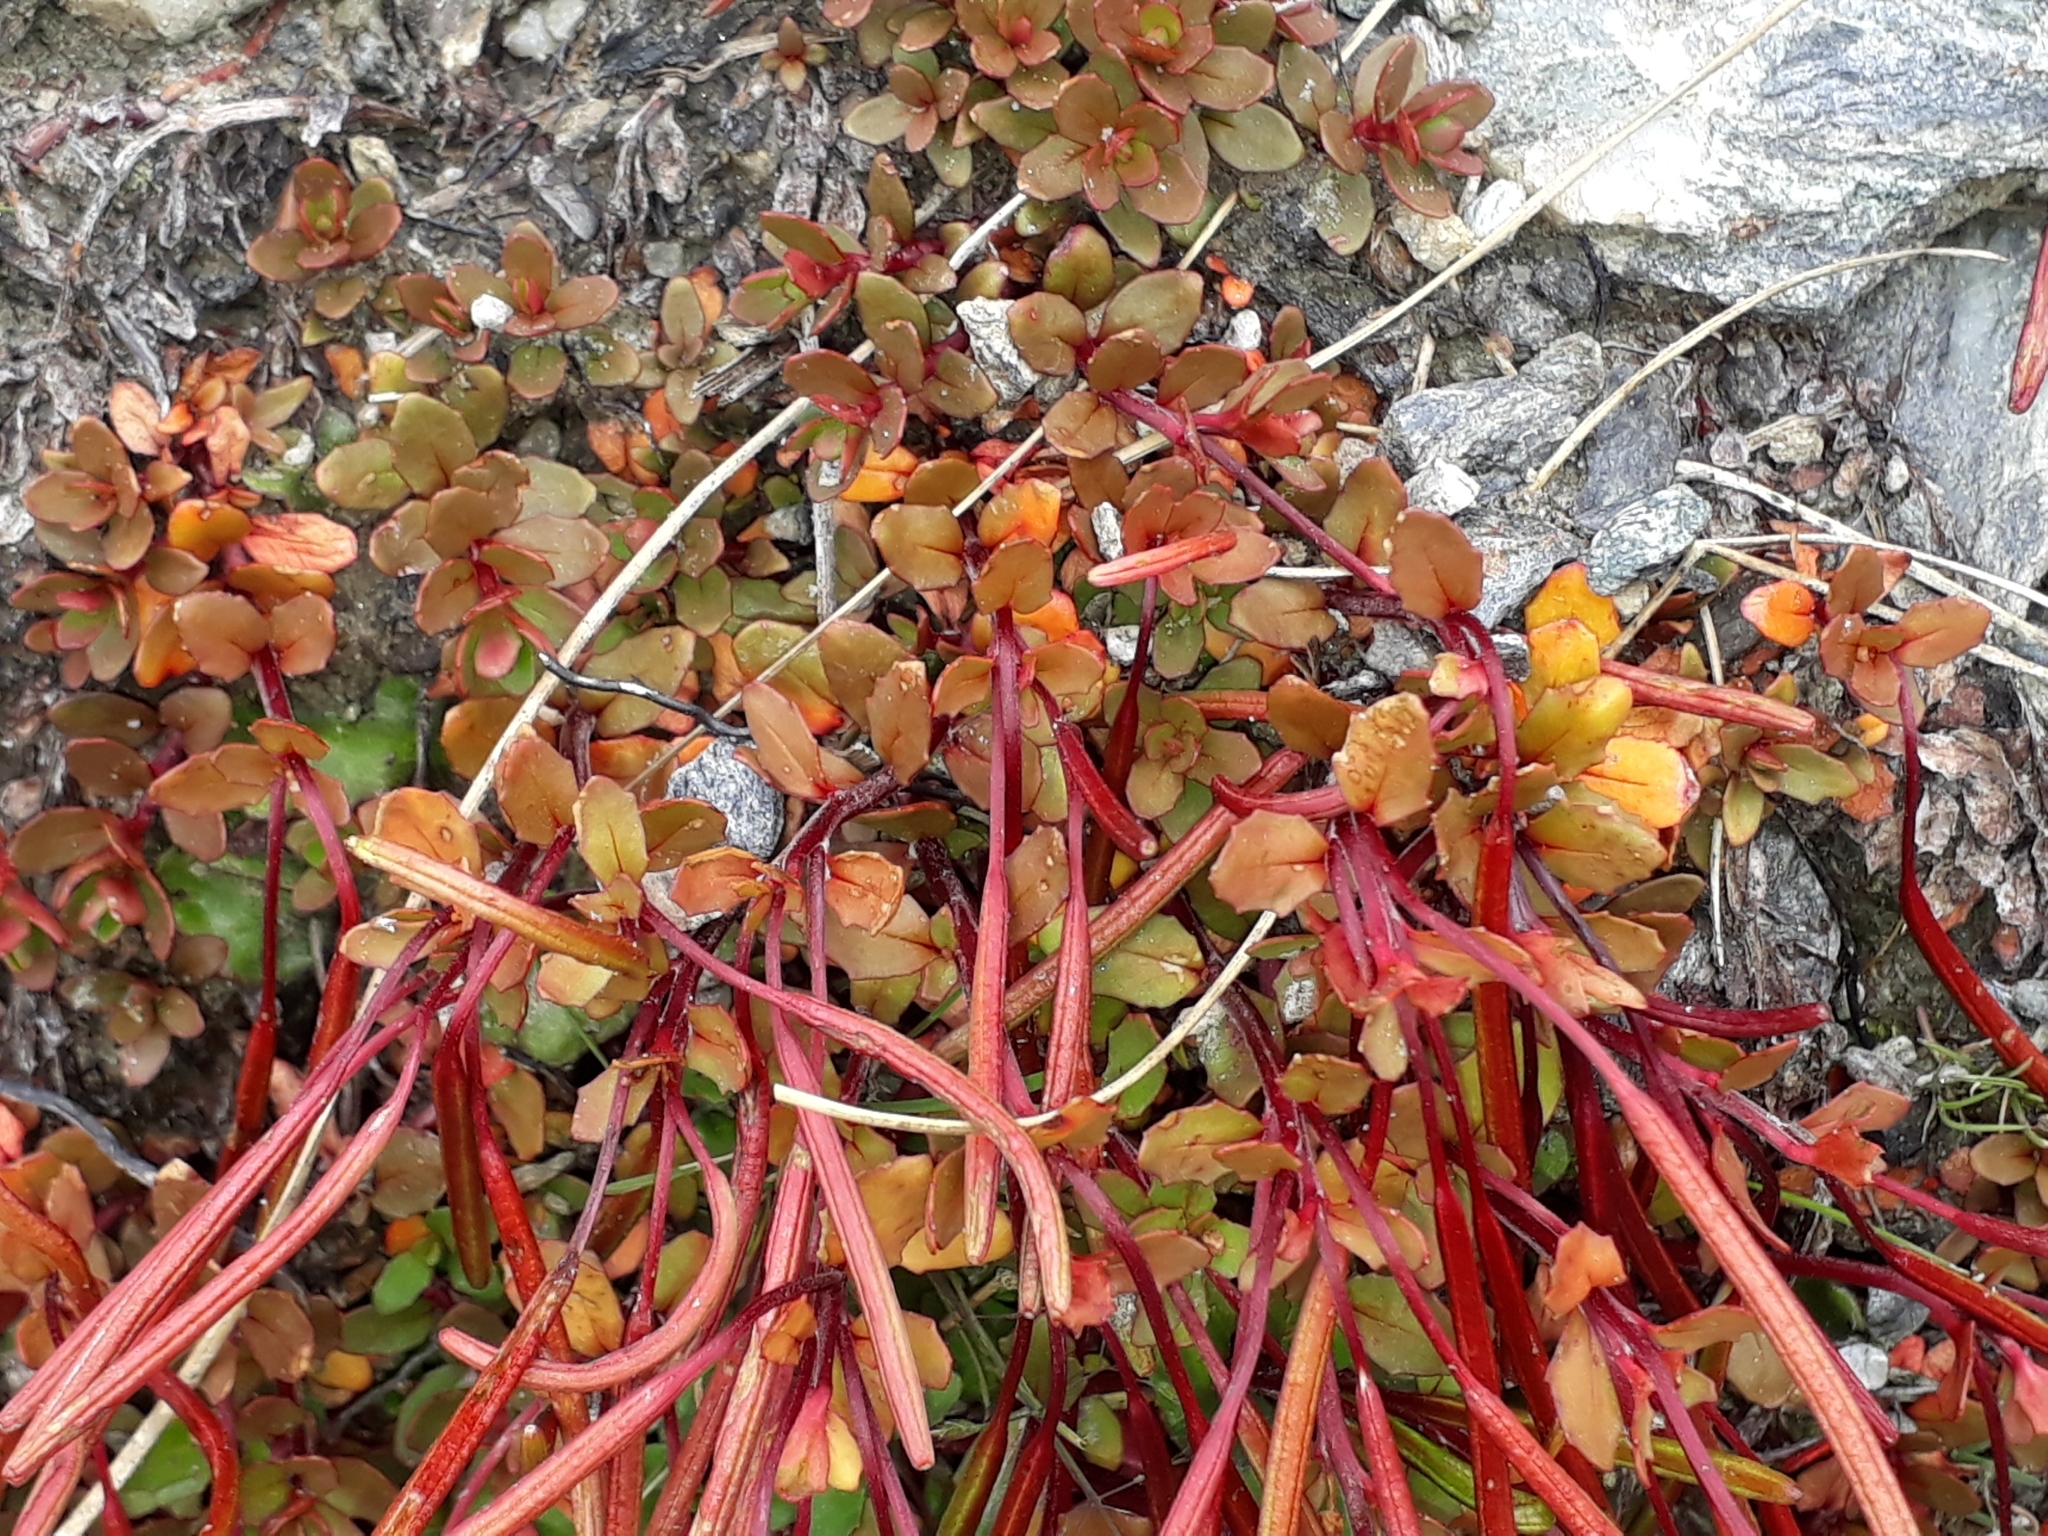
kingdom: Plantae
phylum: Tracheophyta
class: Magnoliopsida
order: Myrtales
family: Onagraceae
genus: Epilobium
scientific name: Epilobium tasmanicum
